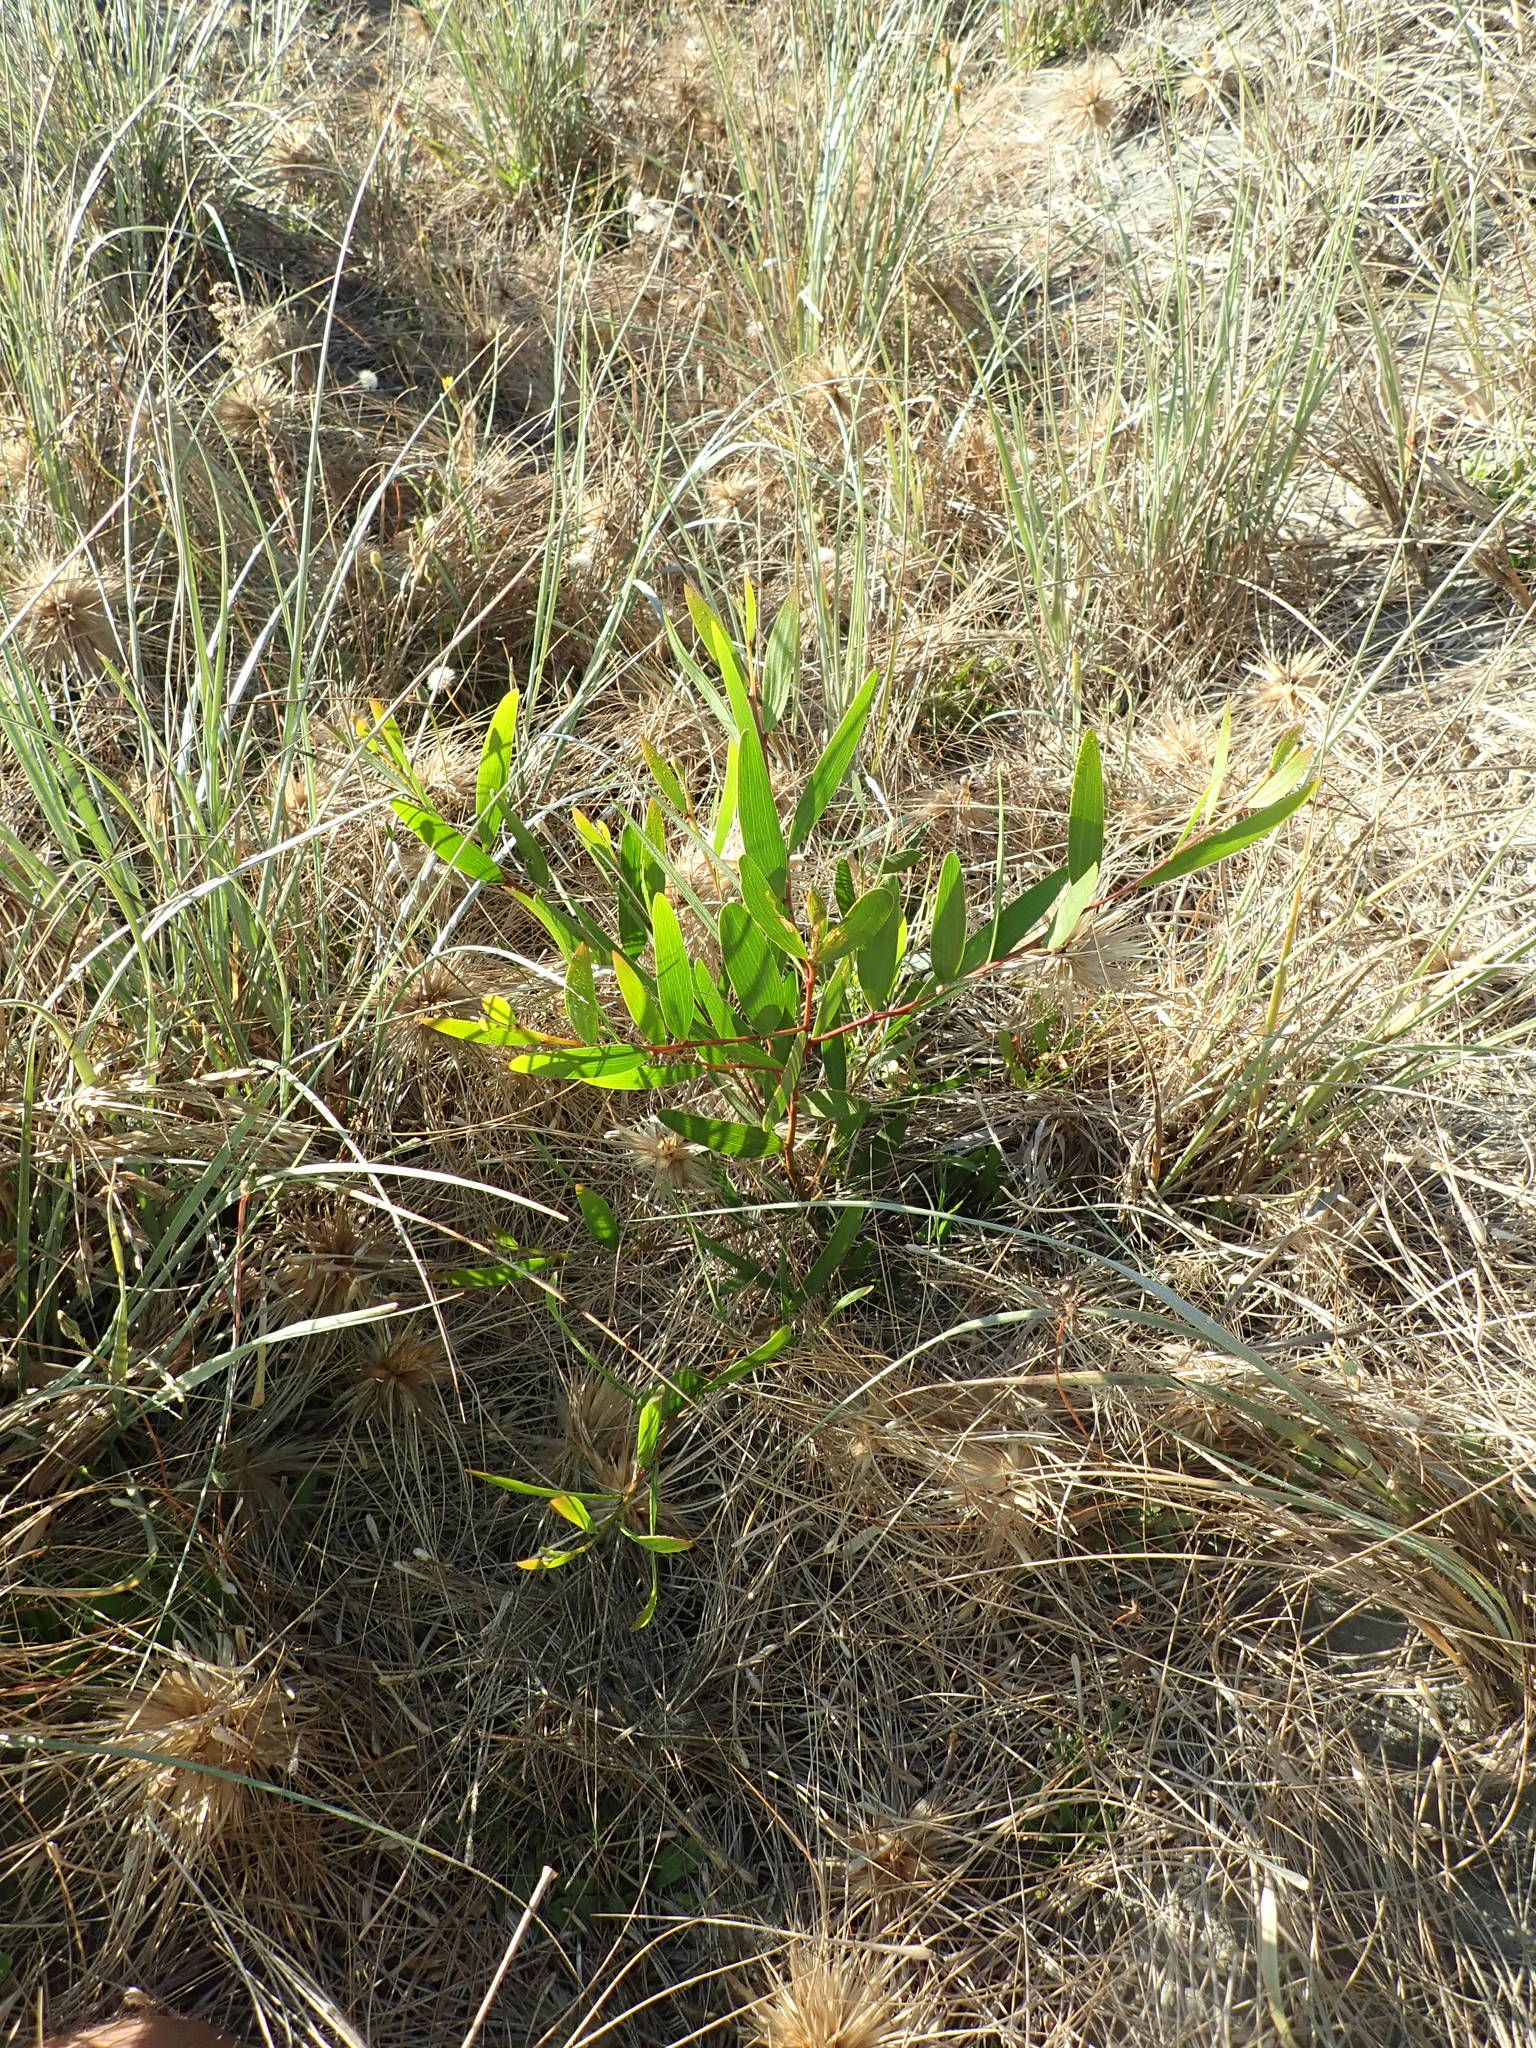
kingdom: Plantae
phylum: Tracheophyta
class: Magnoliopsida
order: Fabales
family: Fabaceae
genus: Acacia
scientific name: Acacia longifolia
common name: Sydney golden wattle
